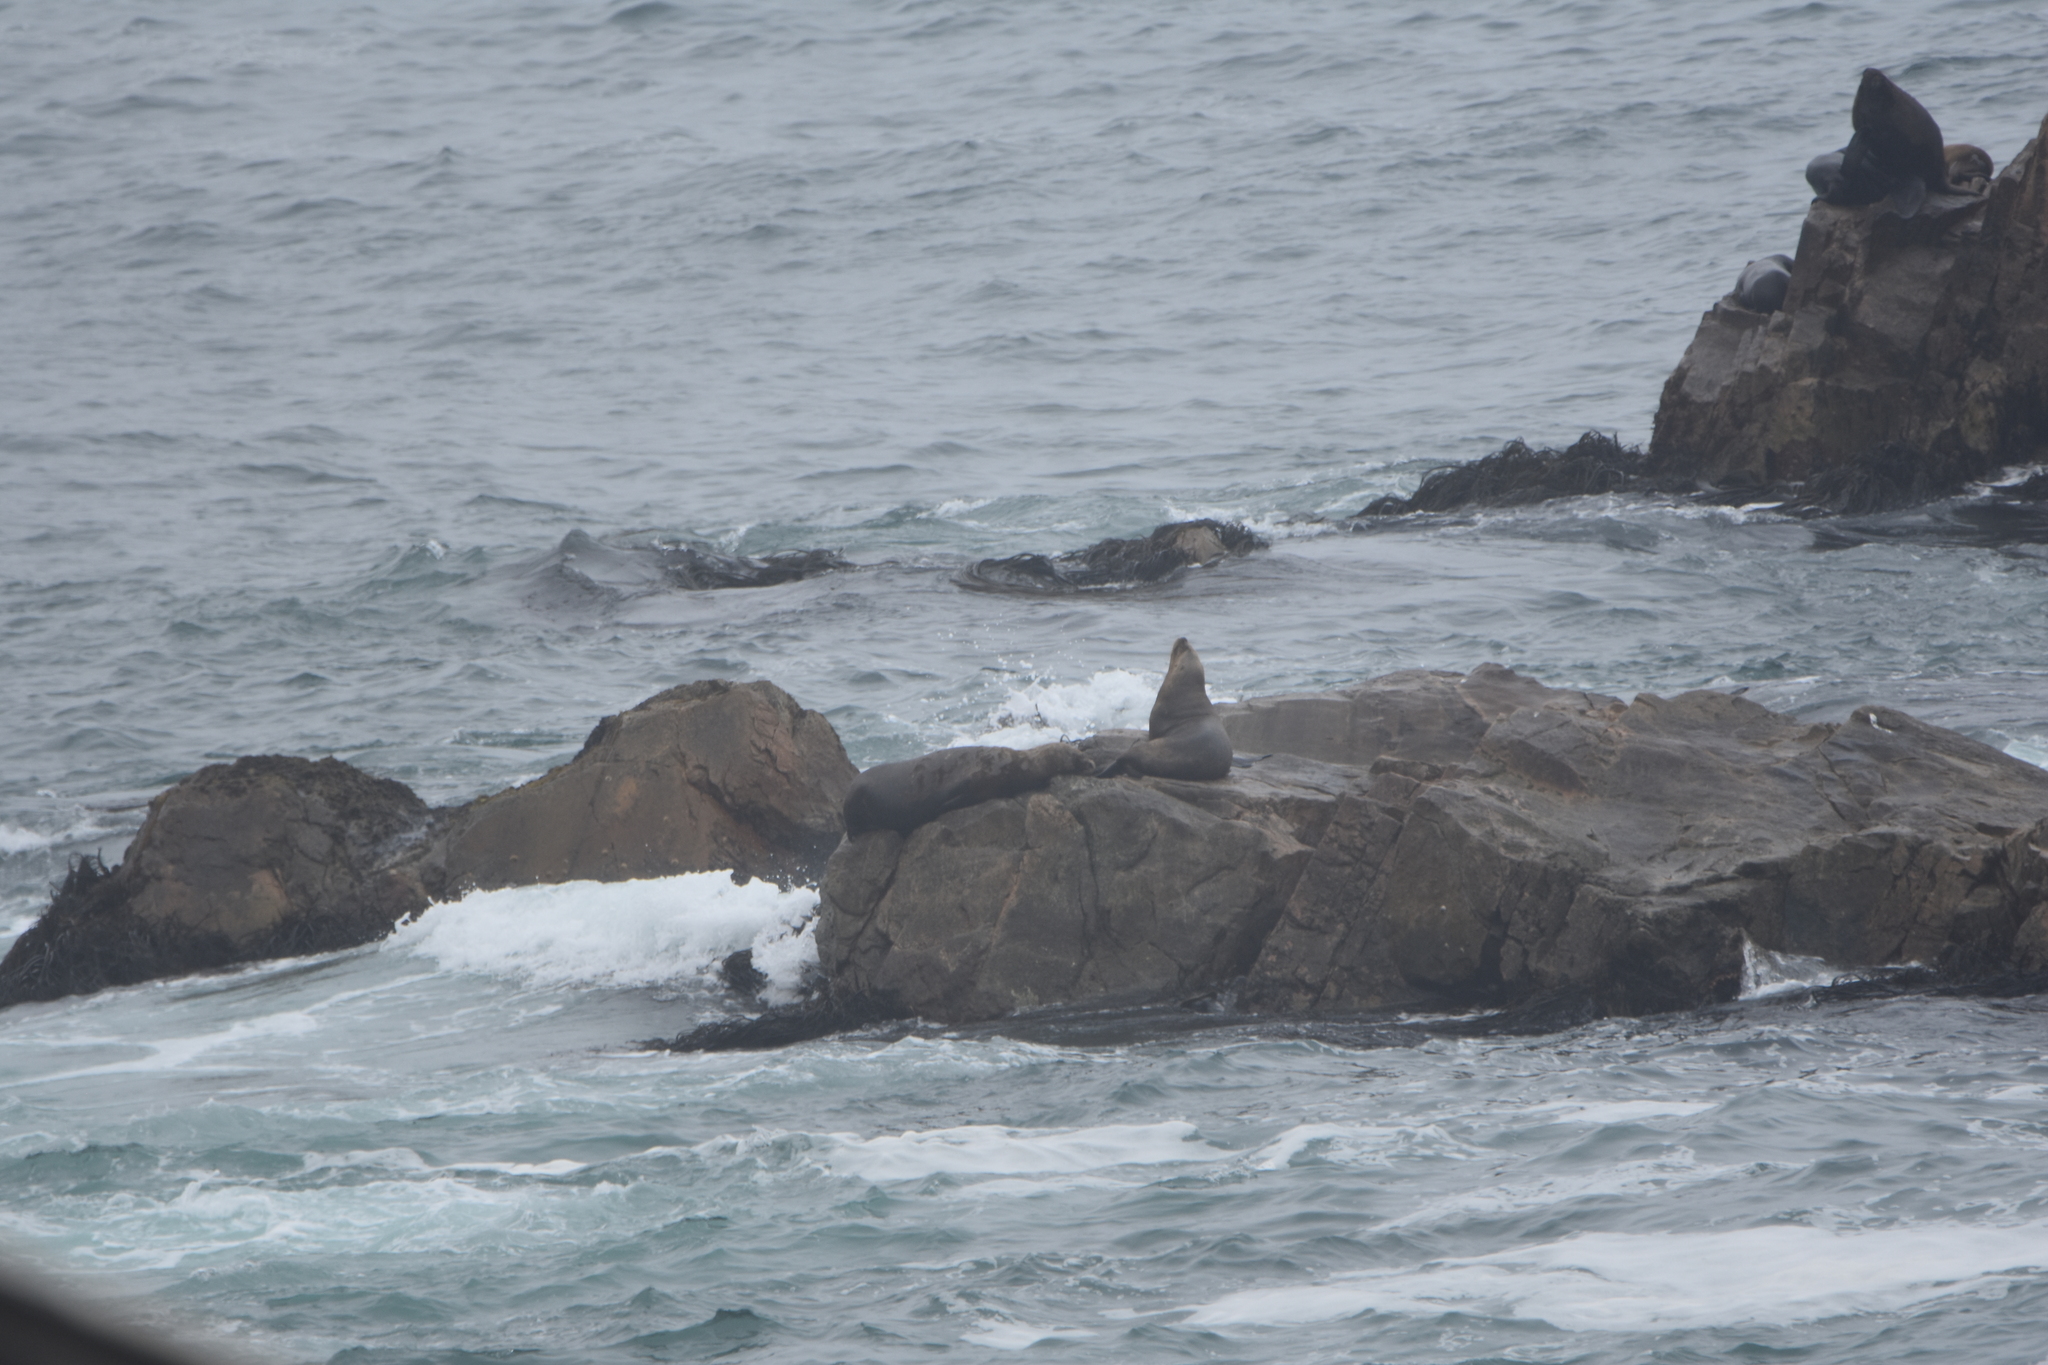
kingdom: Animalia
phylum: Chordata
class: Mammalia
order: Carnivora
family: Otariidae
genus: Otaria
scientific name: Otaria byronia
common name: South american sea lion
